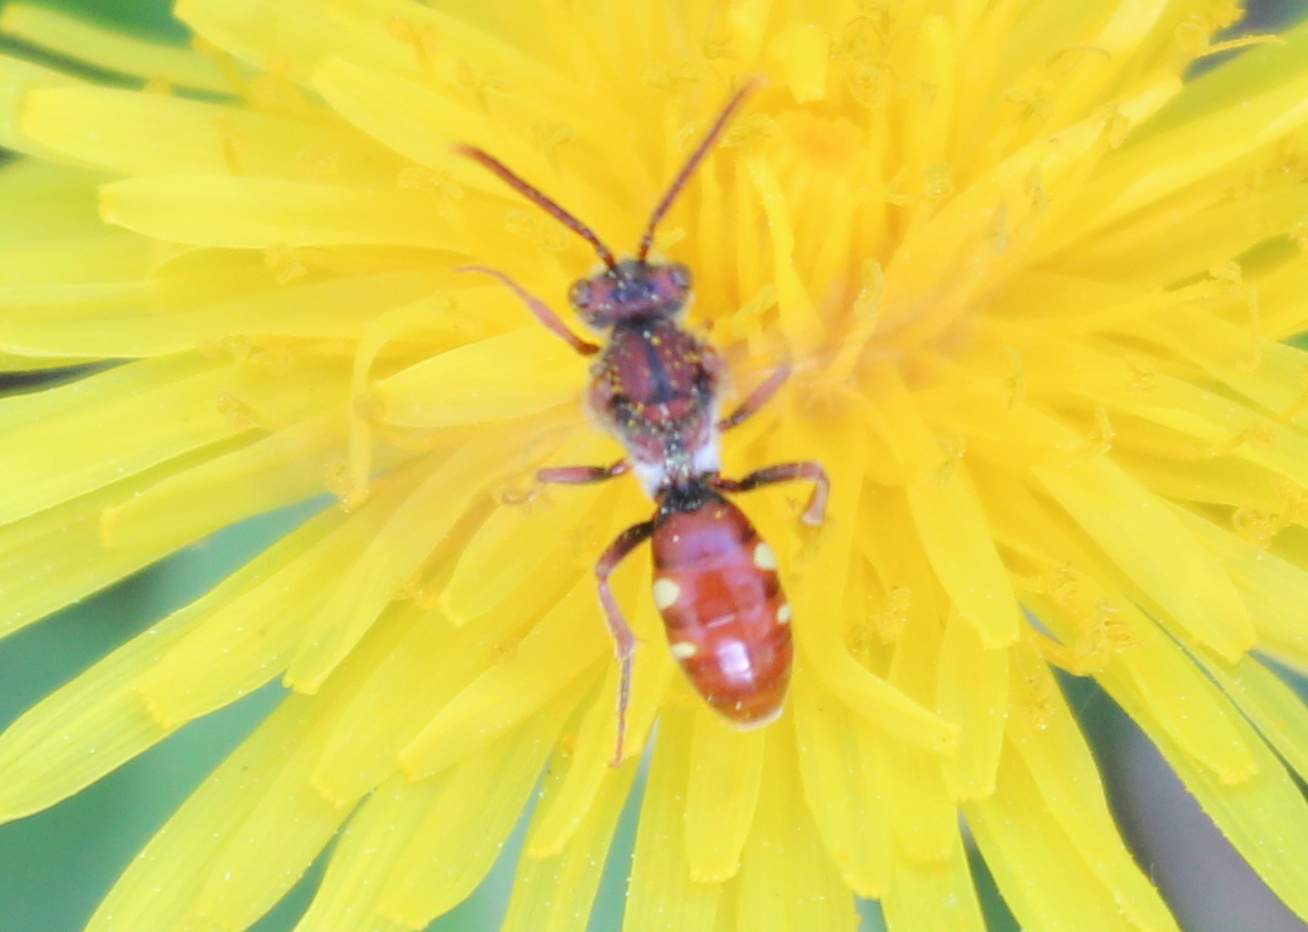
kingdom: Animalia
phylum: Arthropoda
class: Insecta
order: Hymenoptera
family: Apidae
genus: Nomada
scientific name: Nomada cuneata
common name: Cuneate cuckoo nomad bee
